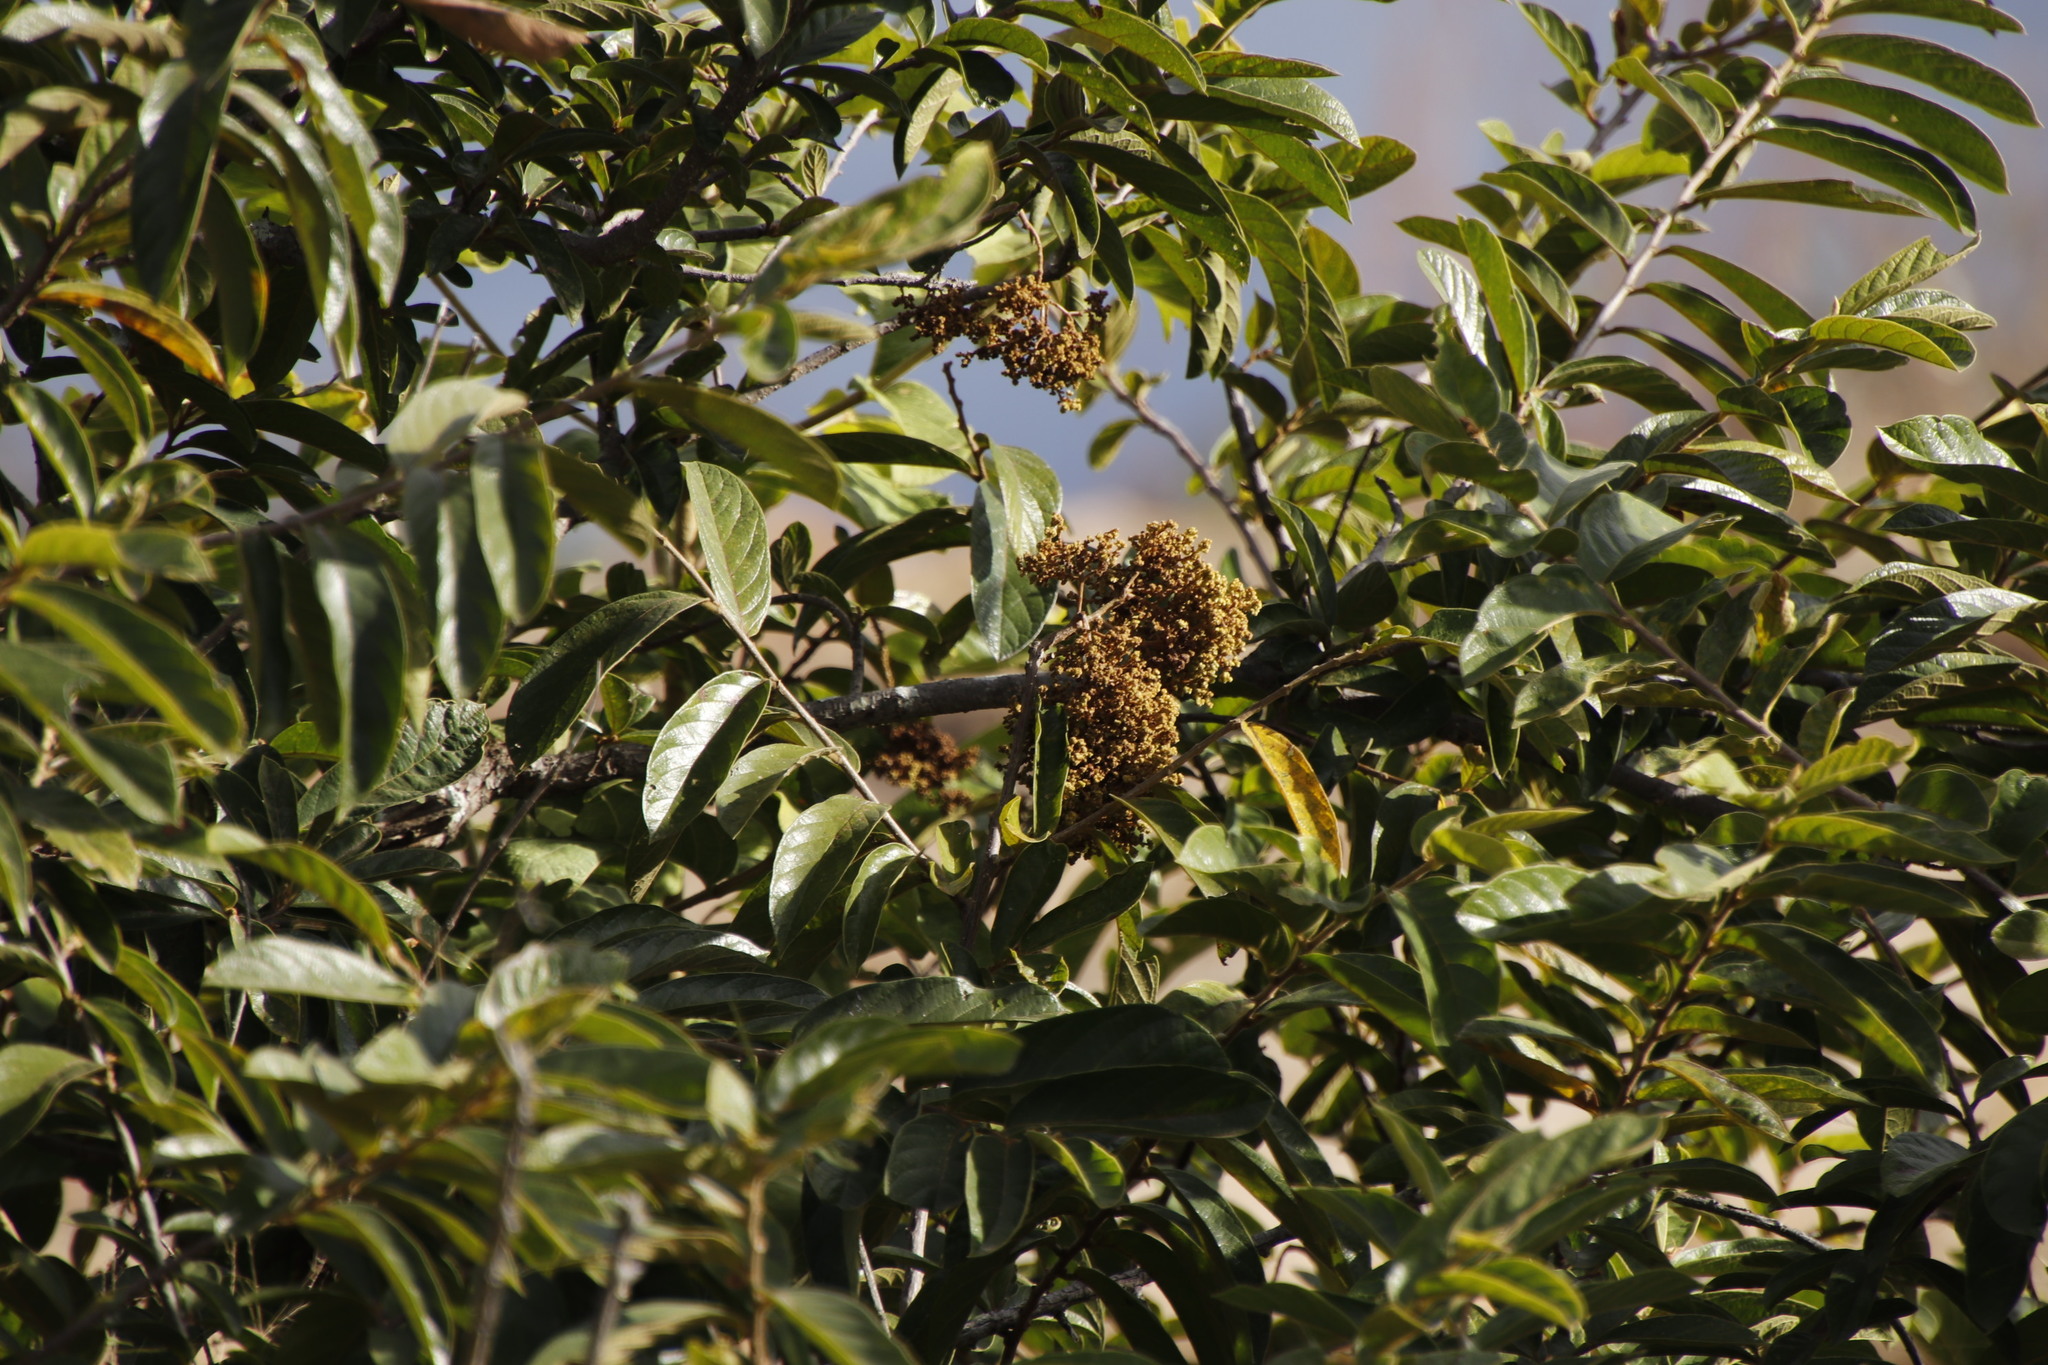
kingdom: Plantae
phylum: Tracheophyta
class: Magnoliopsida
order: Malpighiales
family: Phyllanthaceae
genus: Antidesma
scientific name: Antidesma venosum
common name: Tassel-berry
